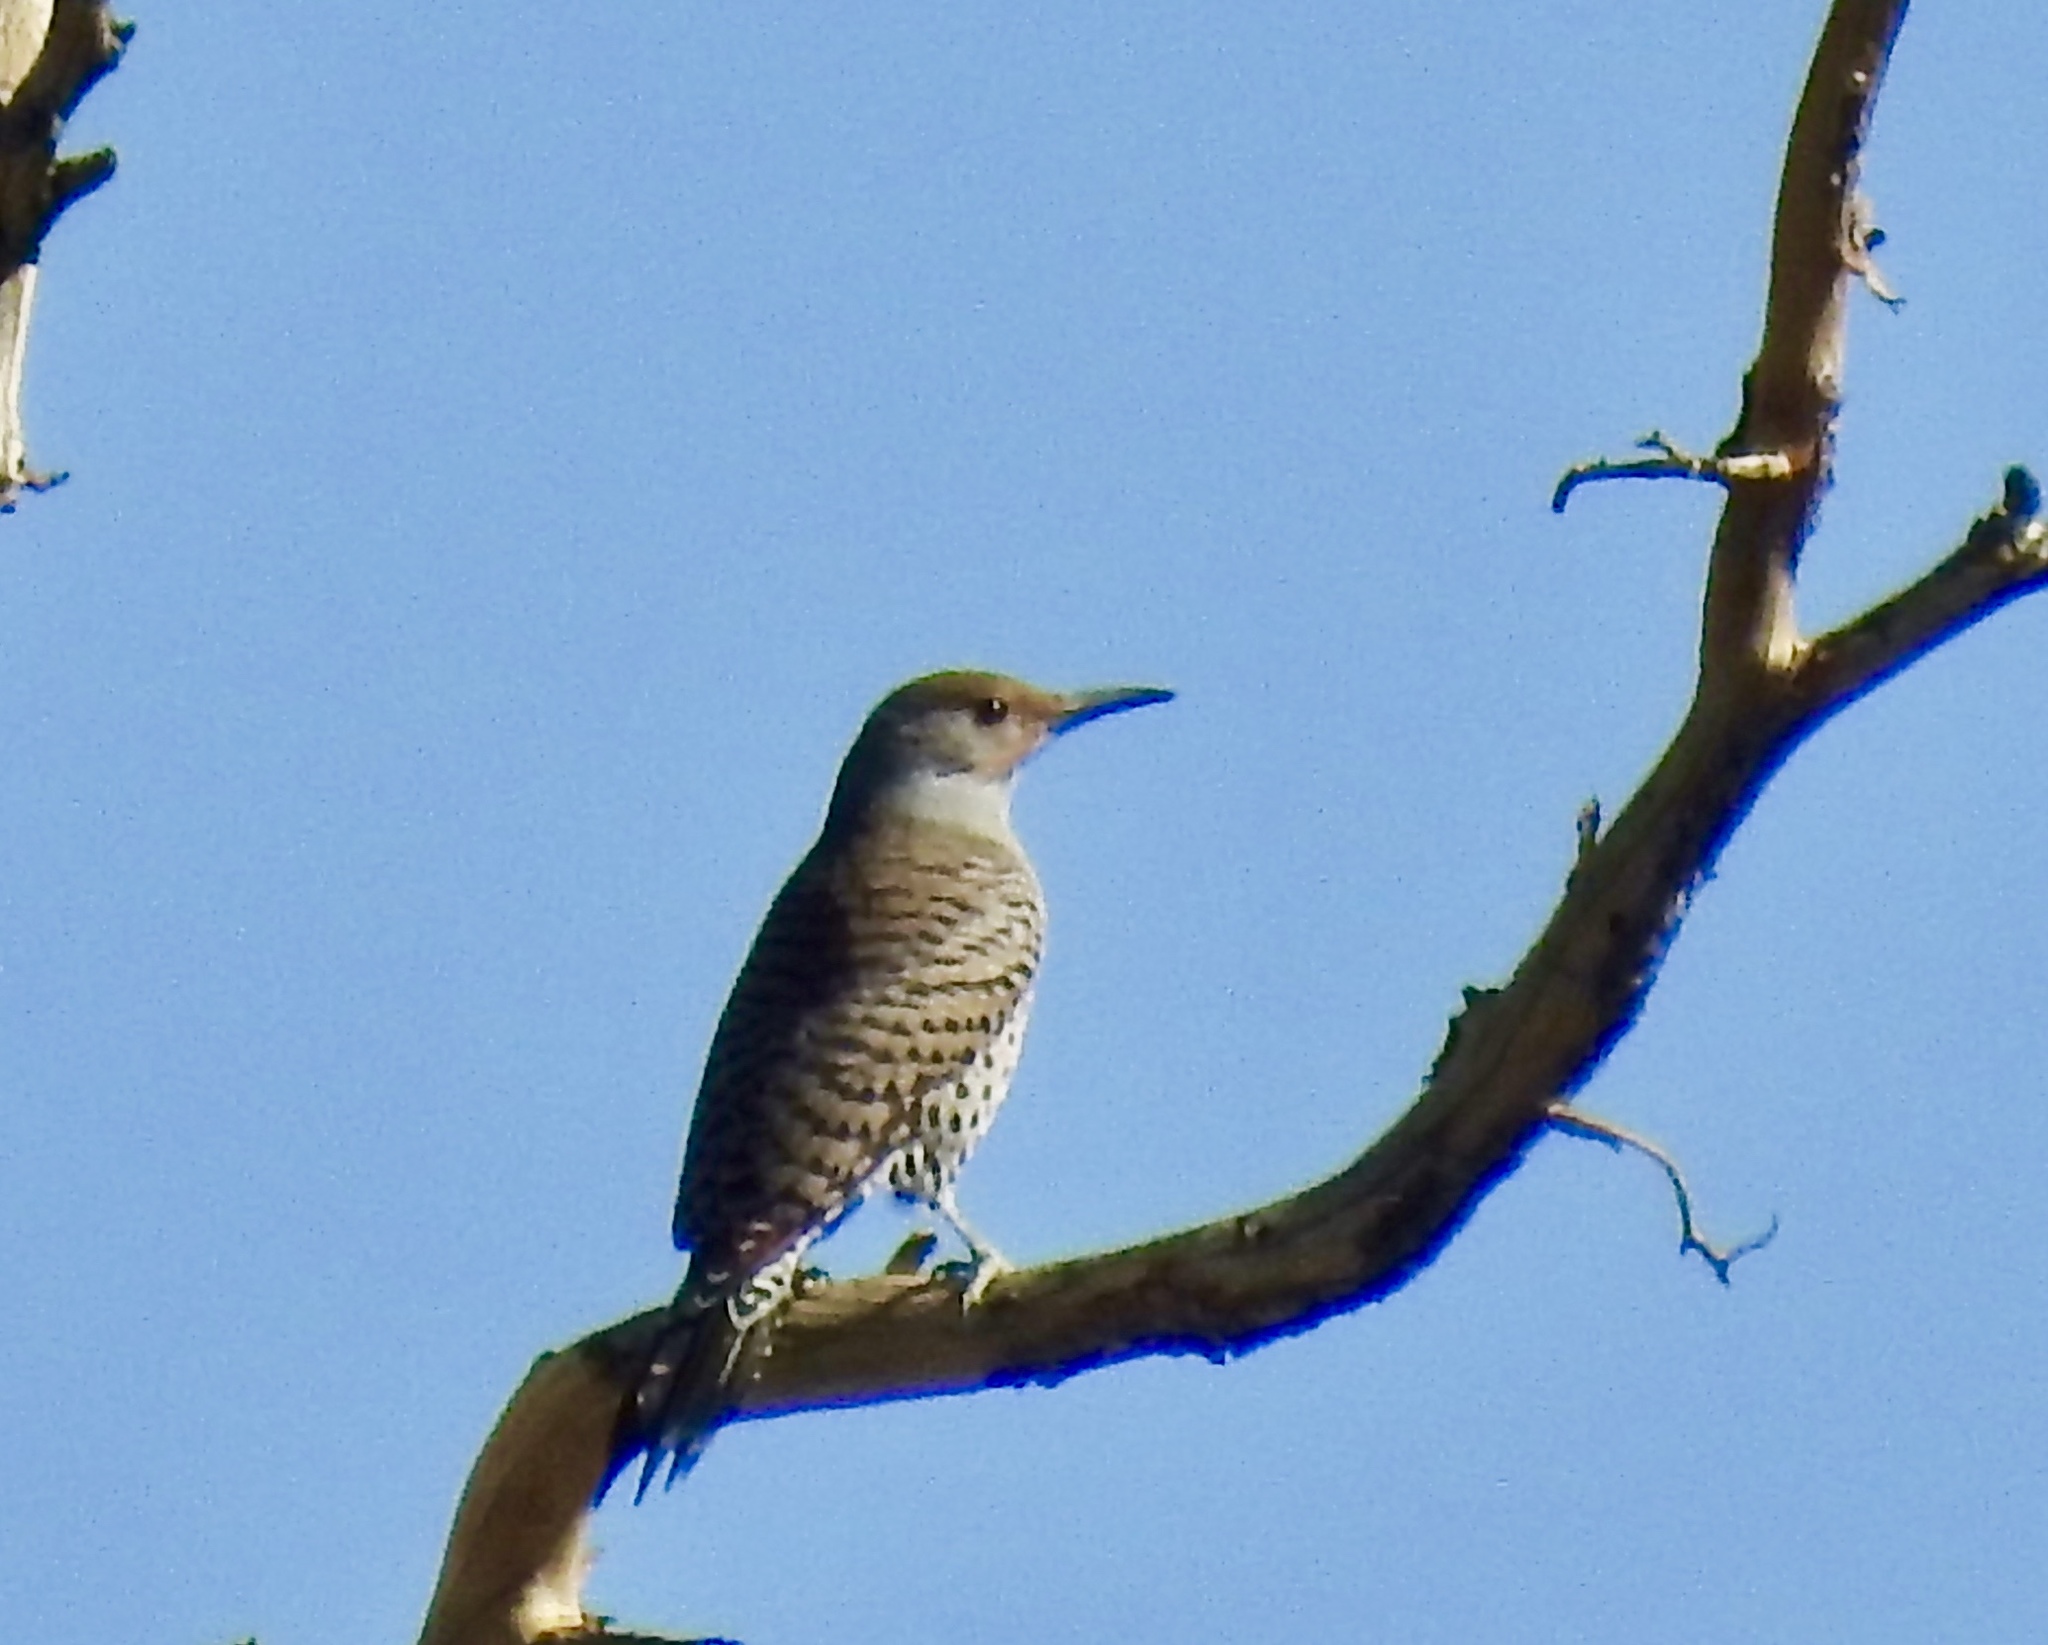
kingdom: Animalia
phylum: Chordata
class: Aves
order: Piciformes
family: Picidae
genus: Colaptes
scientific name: Colaptes auratus
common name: Northern flicker
